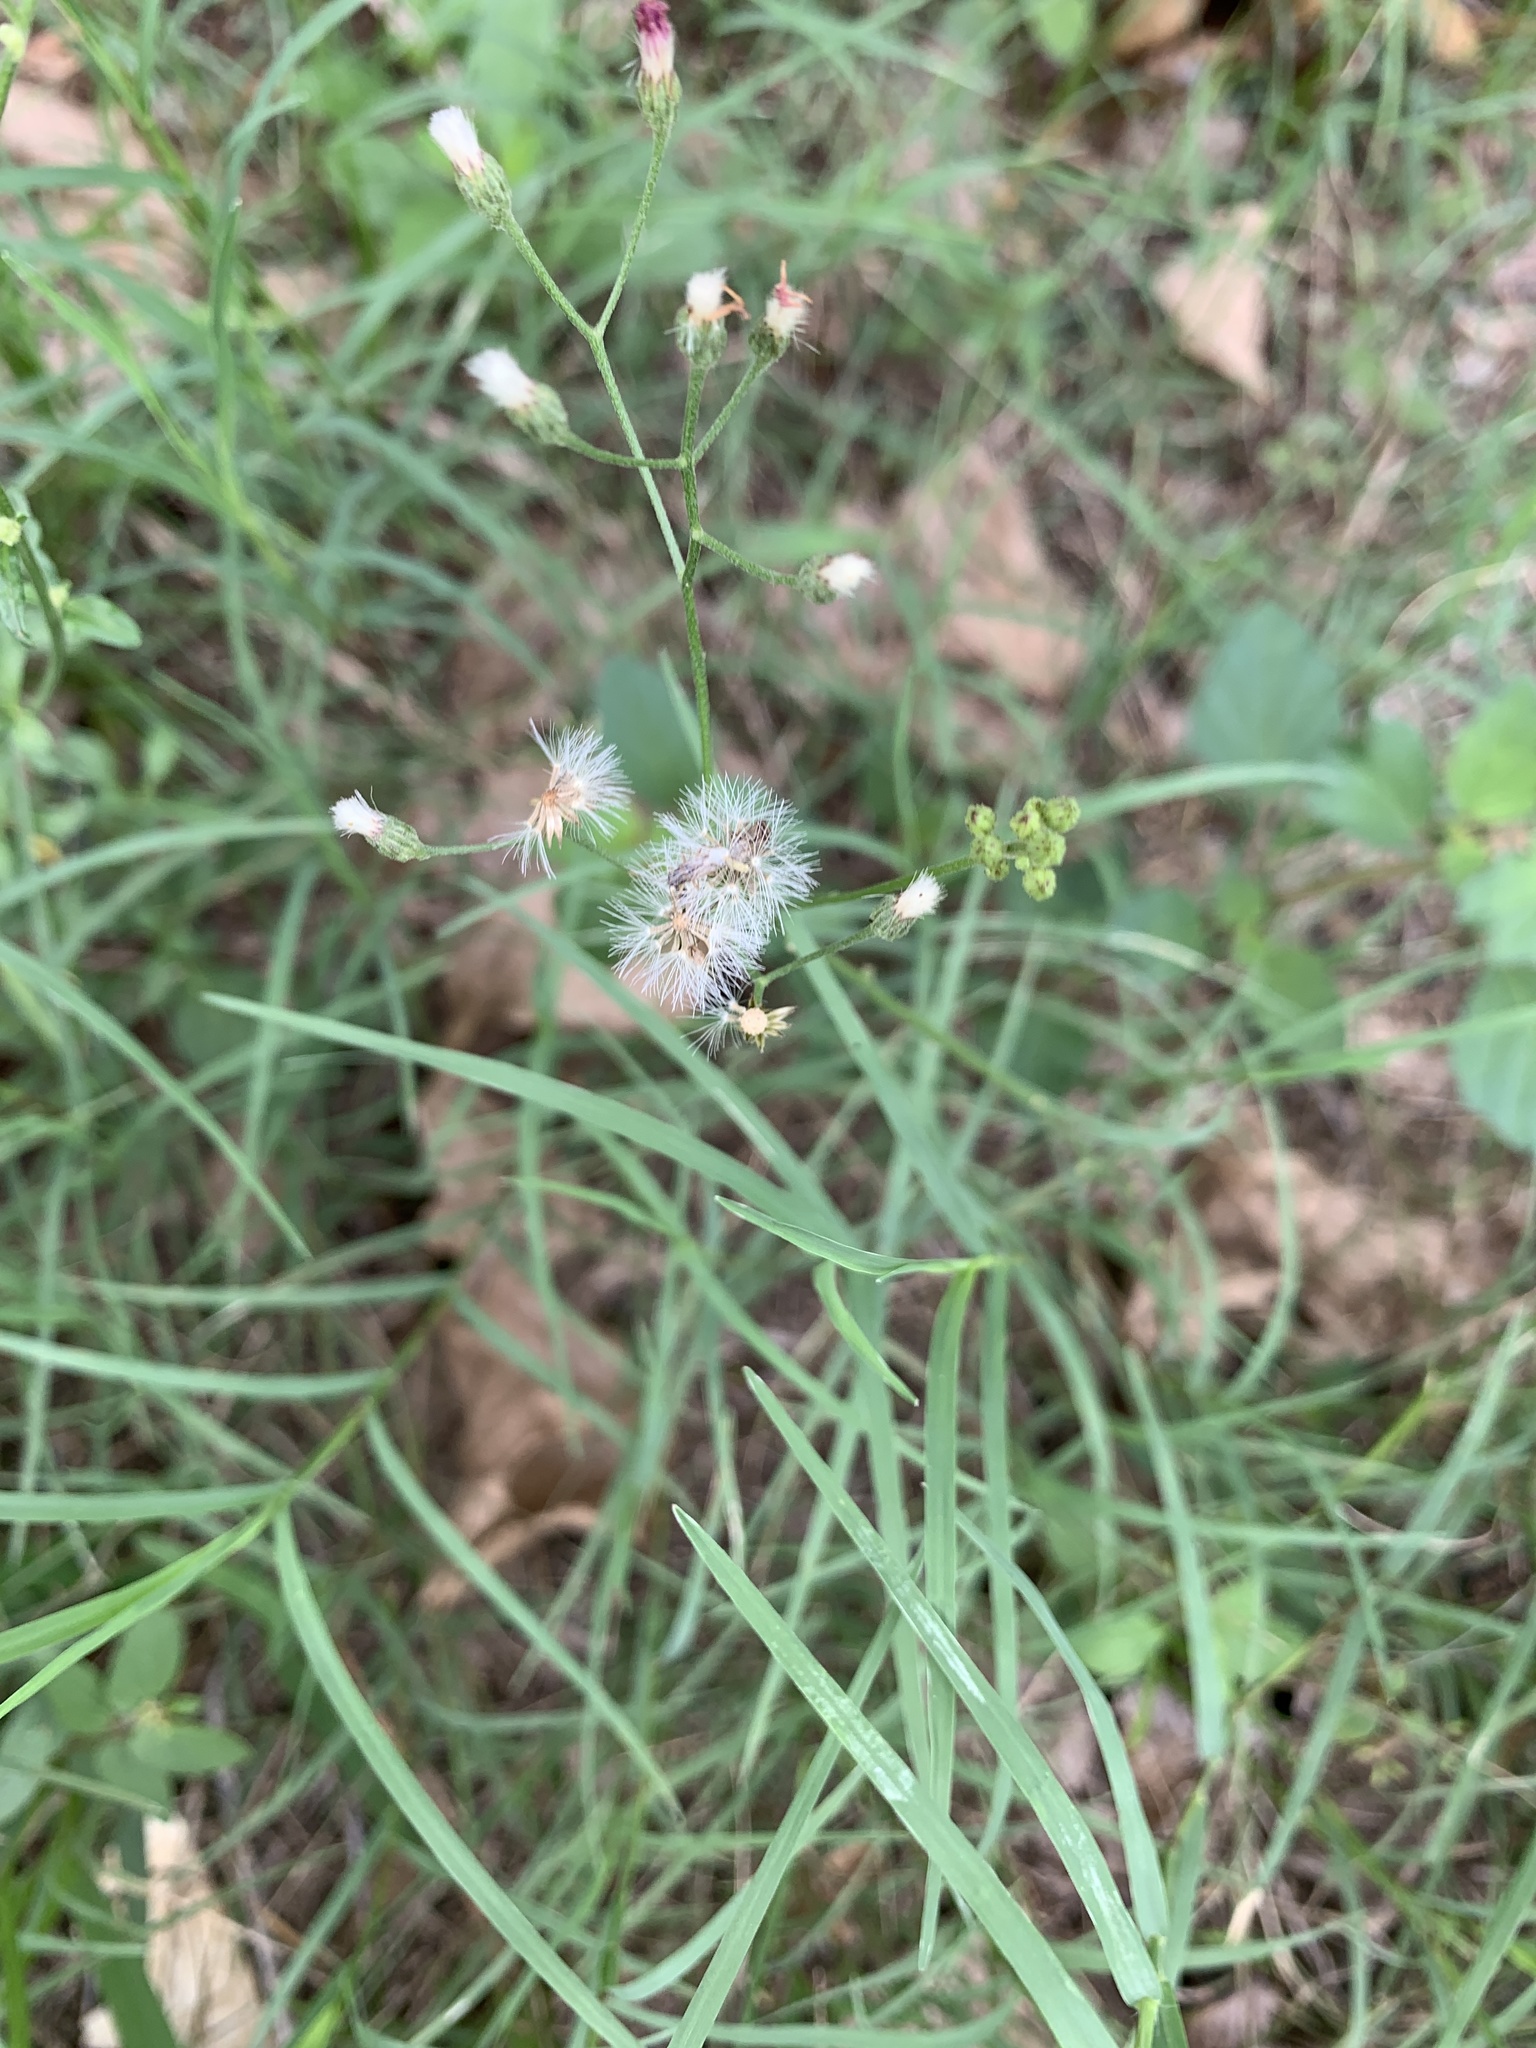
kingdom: Plantae
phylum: Tracheophyta
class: Magnoliopsida
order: Asterales
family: Asteraceae
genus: Cyanthillium
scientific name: Cyanthillium cinereum
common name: Little ironweed
